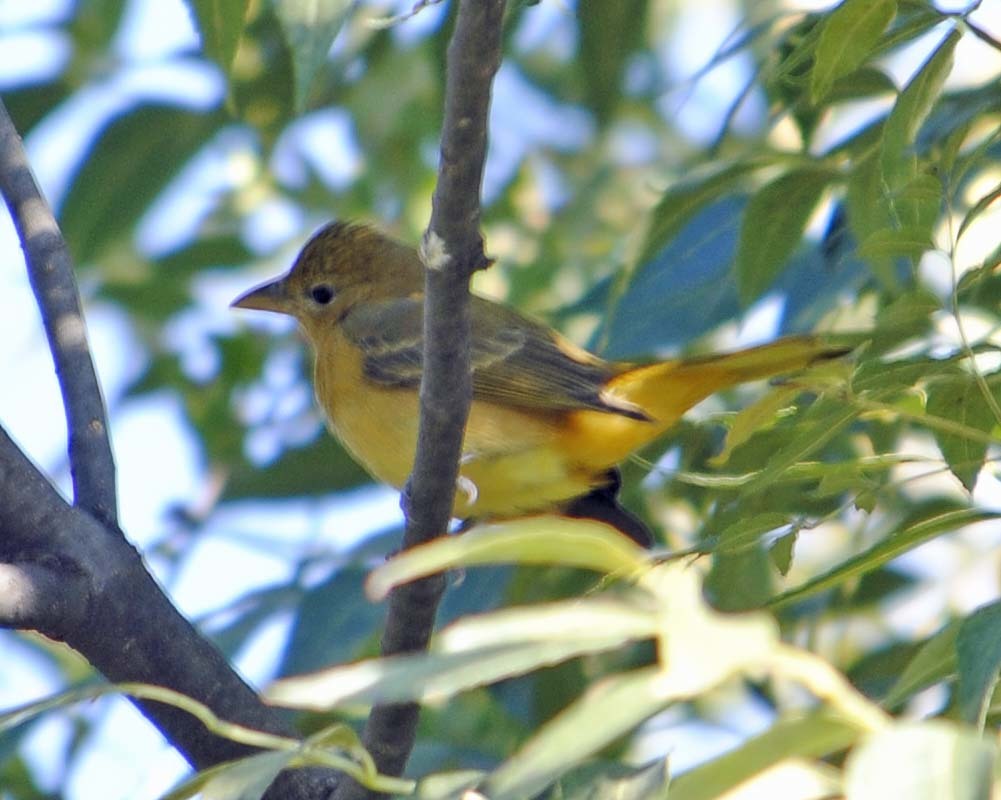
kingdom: Animalia
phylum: Chordata
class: Aves
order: Passeriformes
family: Cardinalidae
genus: Piranga
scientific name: Piranga rubra
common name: Summer tanager
